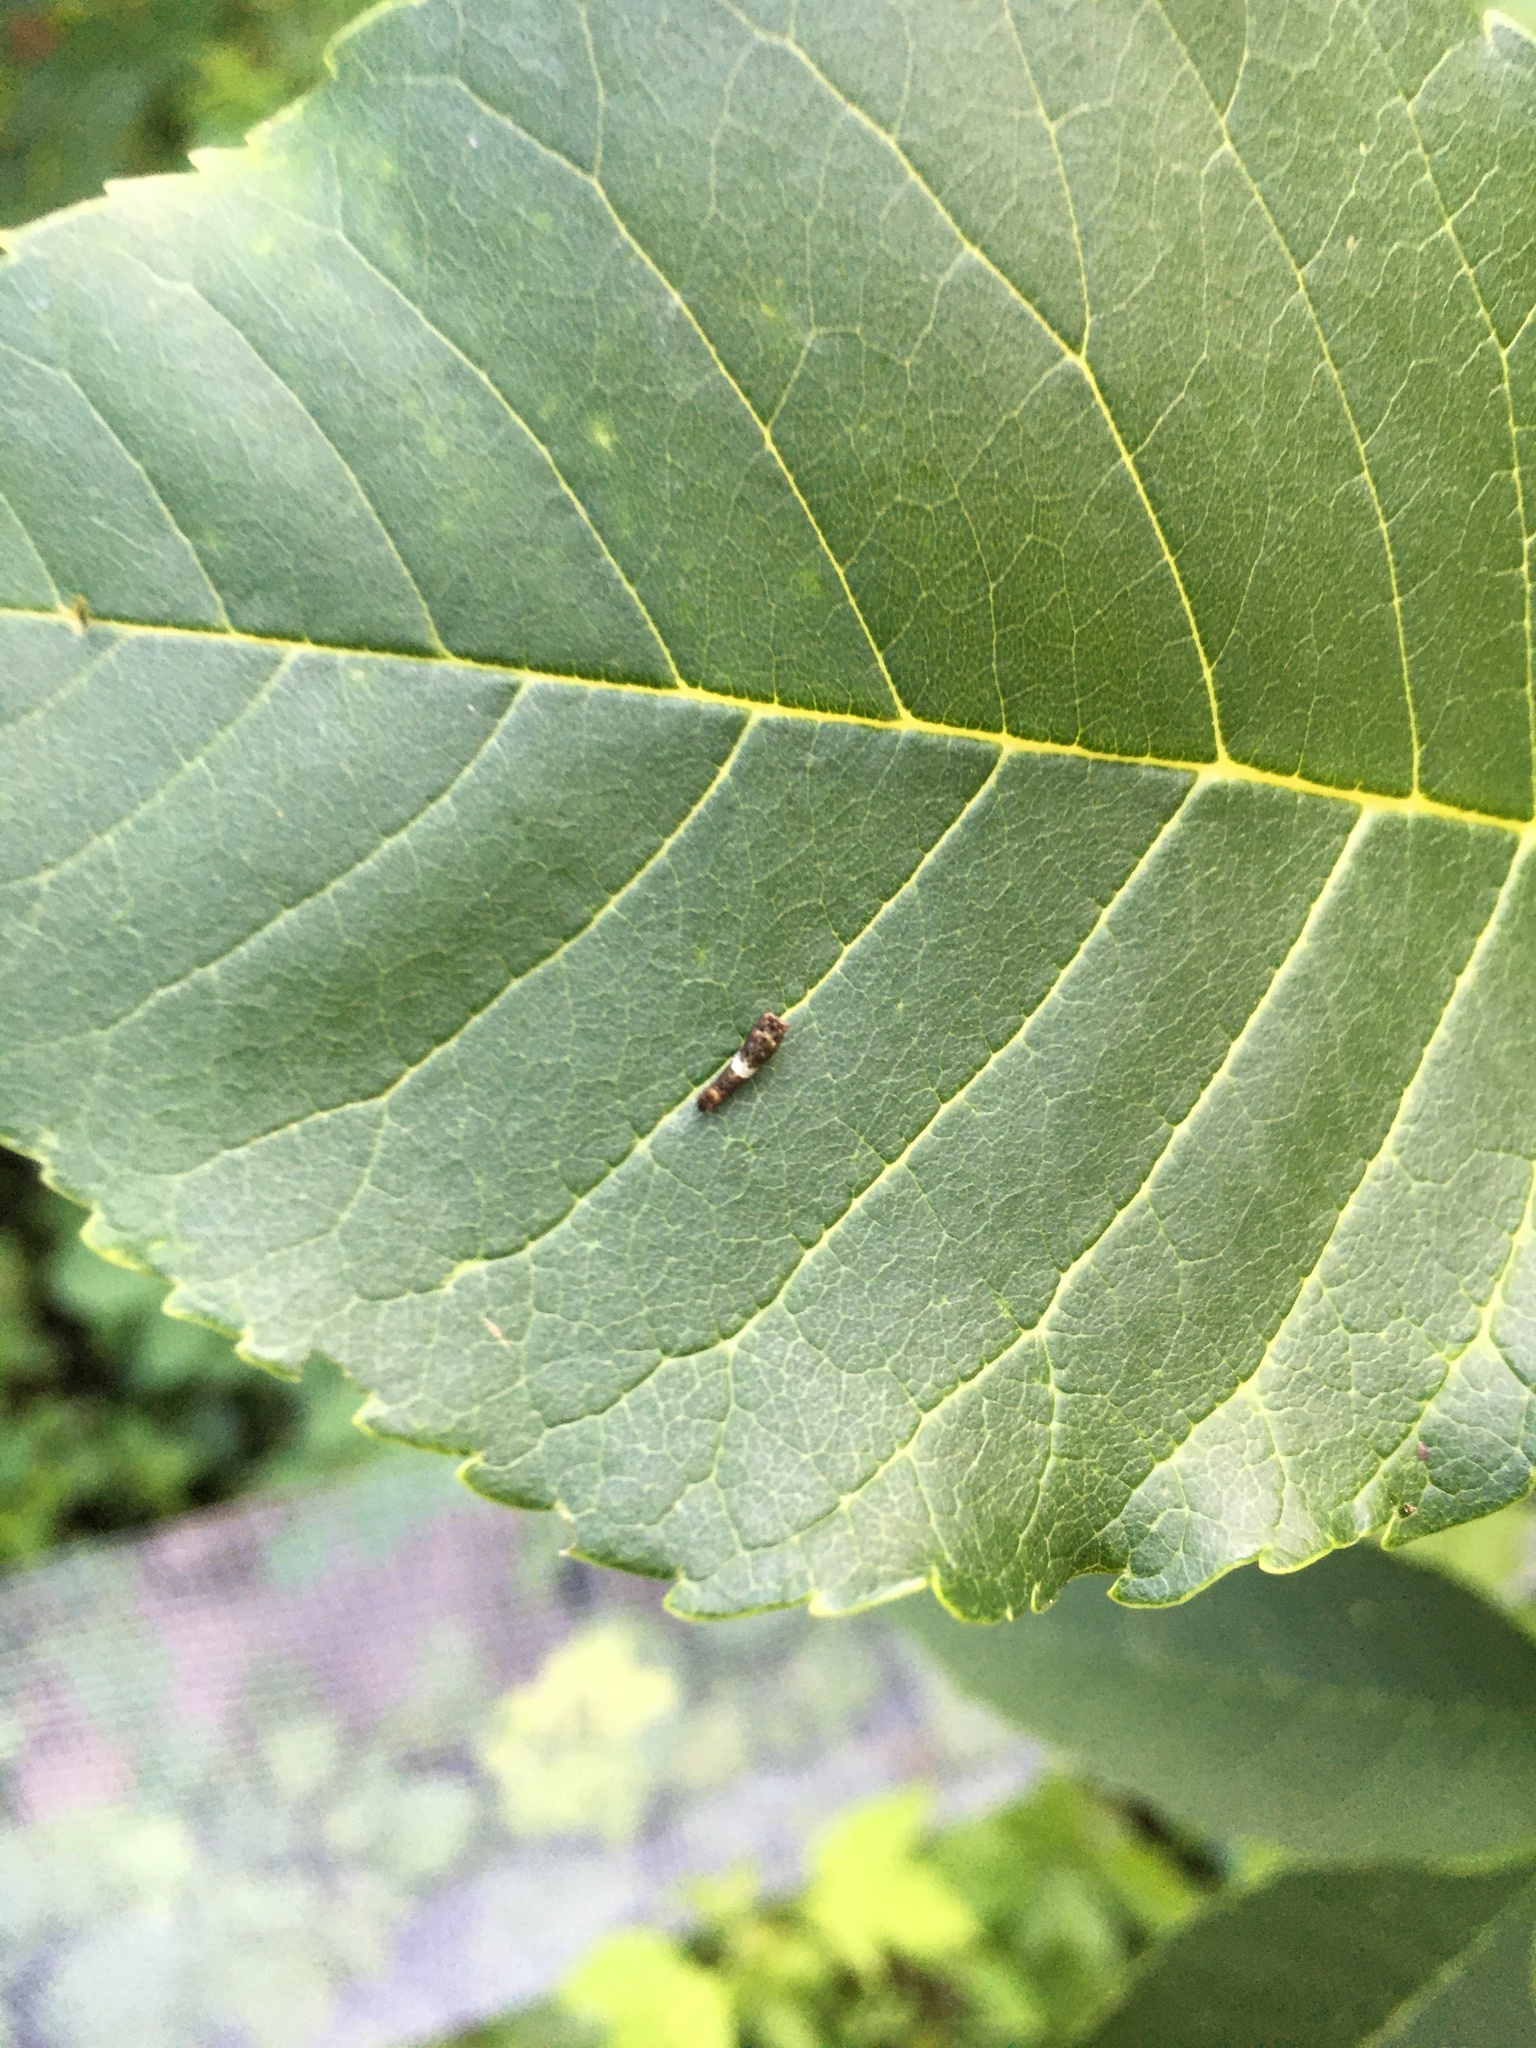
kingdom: Animalia
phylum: Arthropoda
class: Insecta
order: Lepidoptera
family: Papilionidae
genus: Papilio
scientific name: Papilio glaucus
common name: Tiger swallowtail
